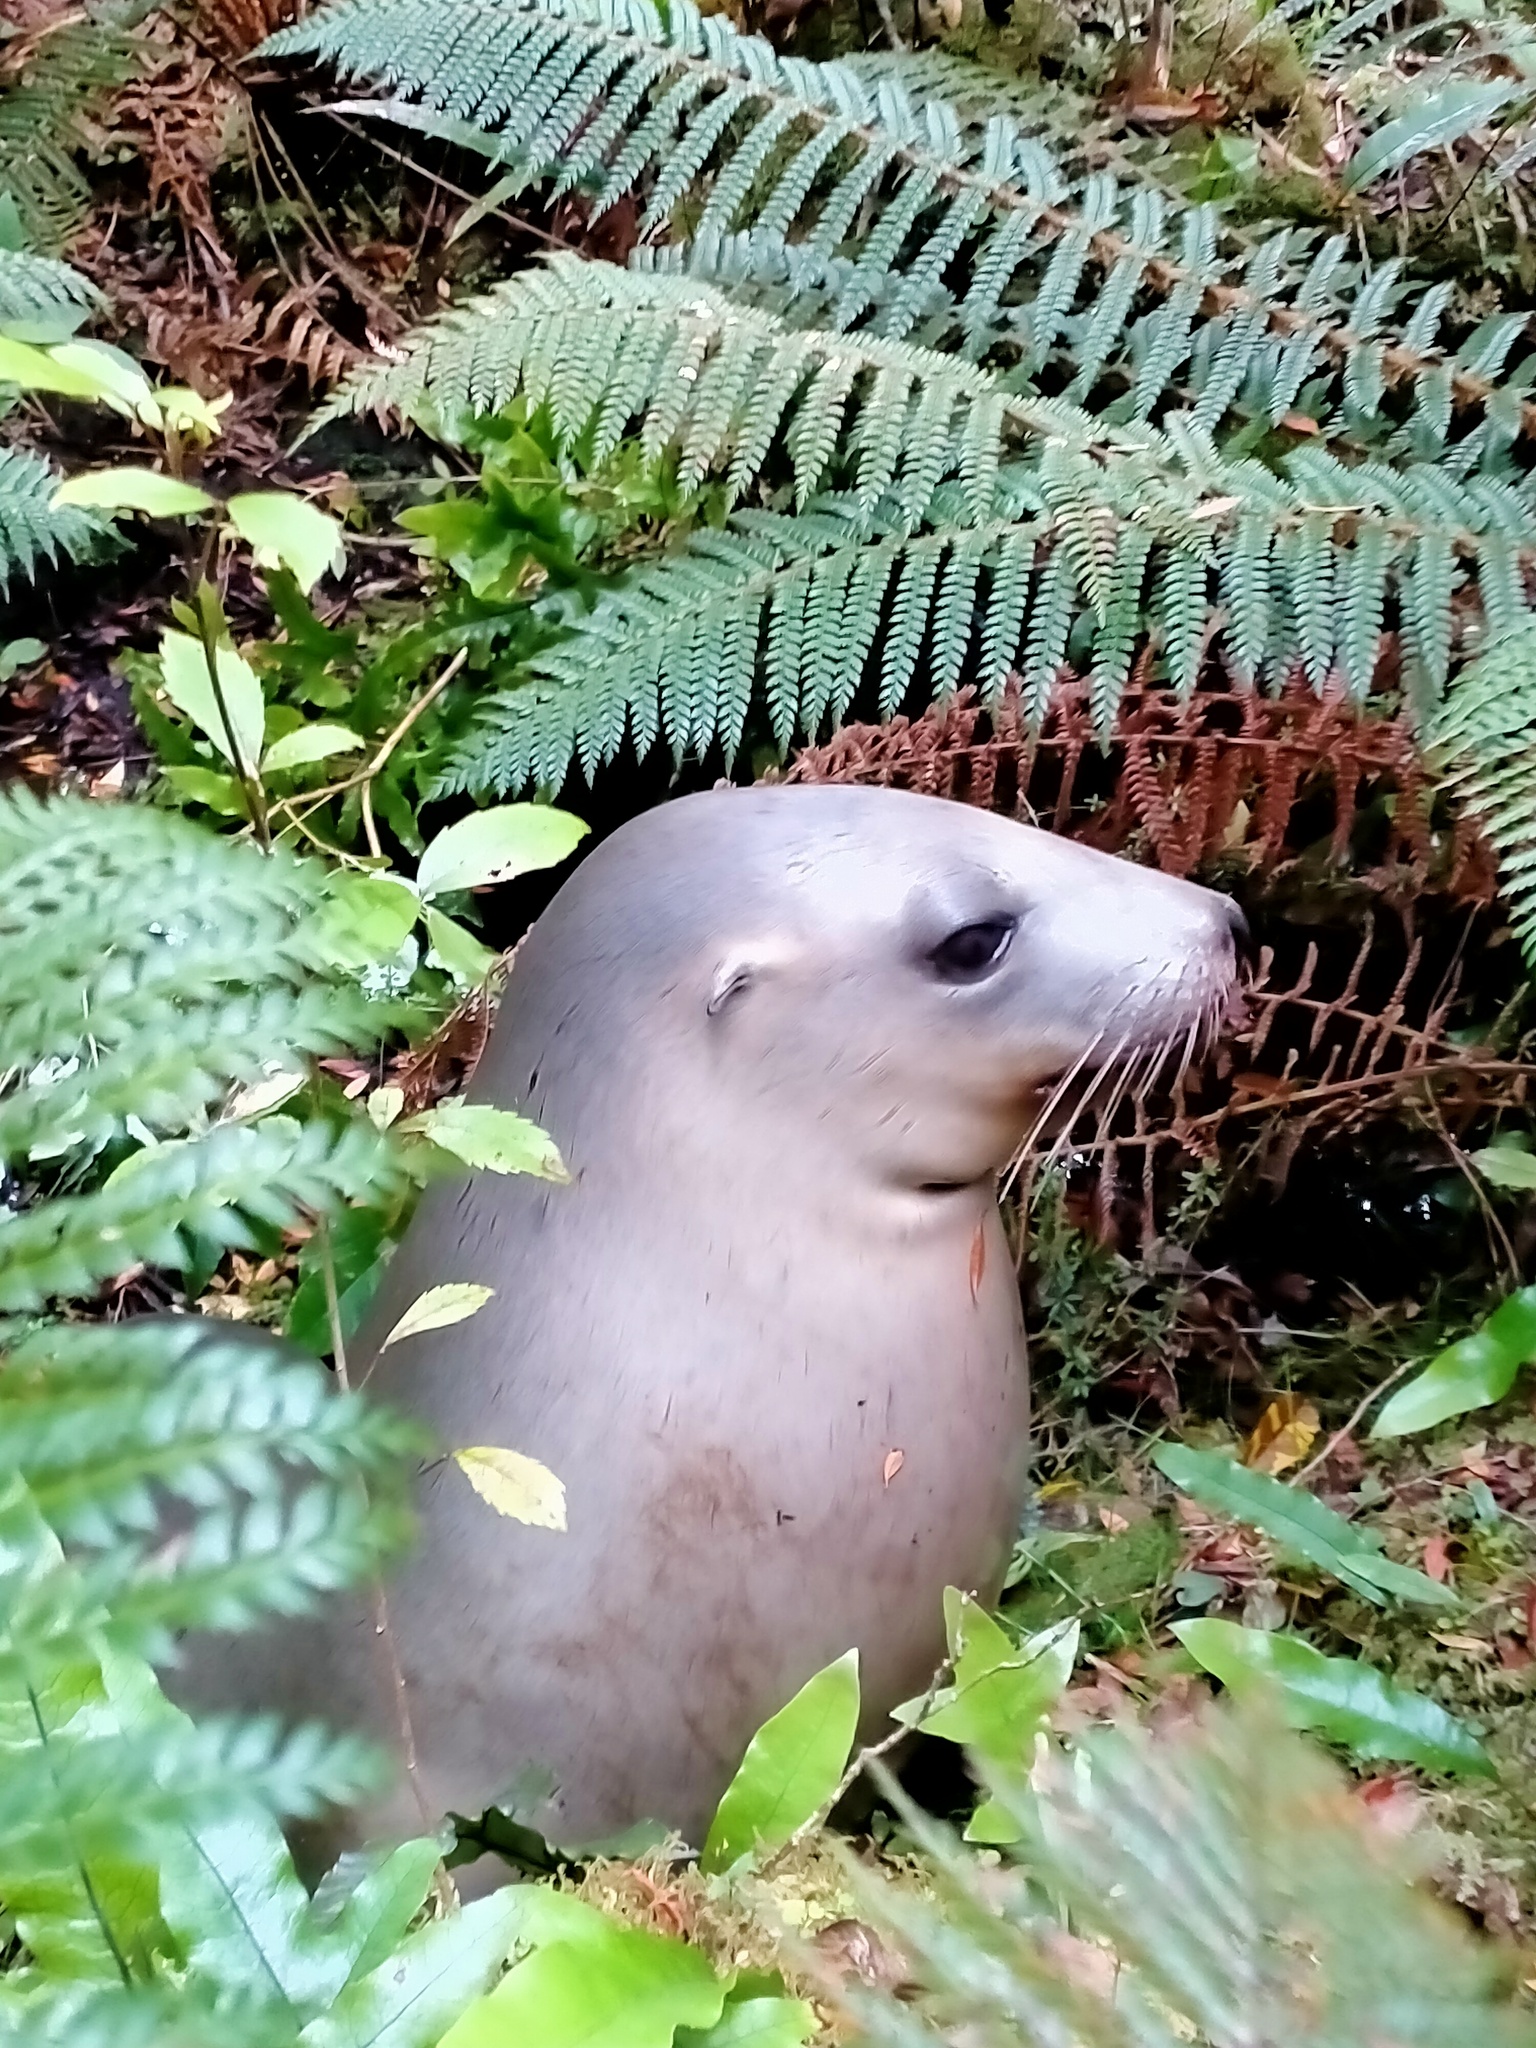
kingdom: Animalia
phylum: Chordata
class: Mammalia
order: Carnivora
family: Otariidae
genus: Phocarctos
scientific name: Phocarctos hookeri
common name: New zealand sea lion
